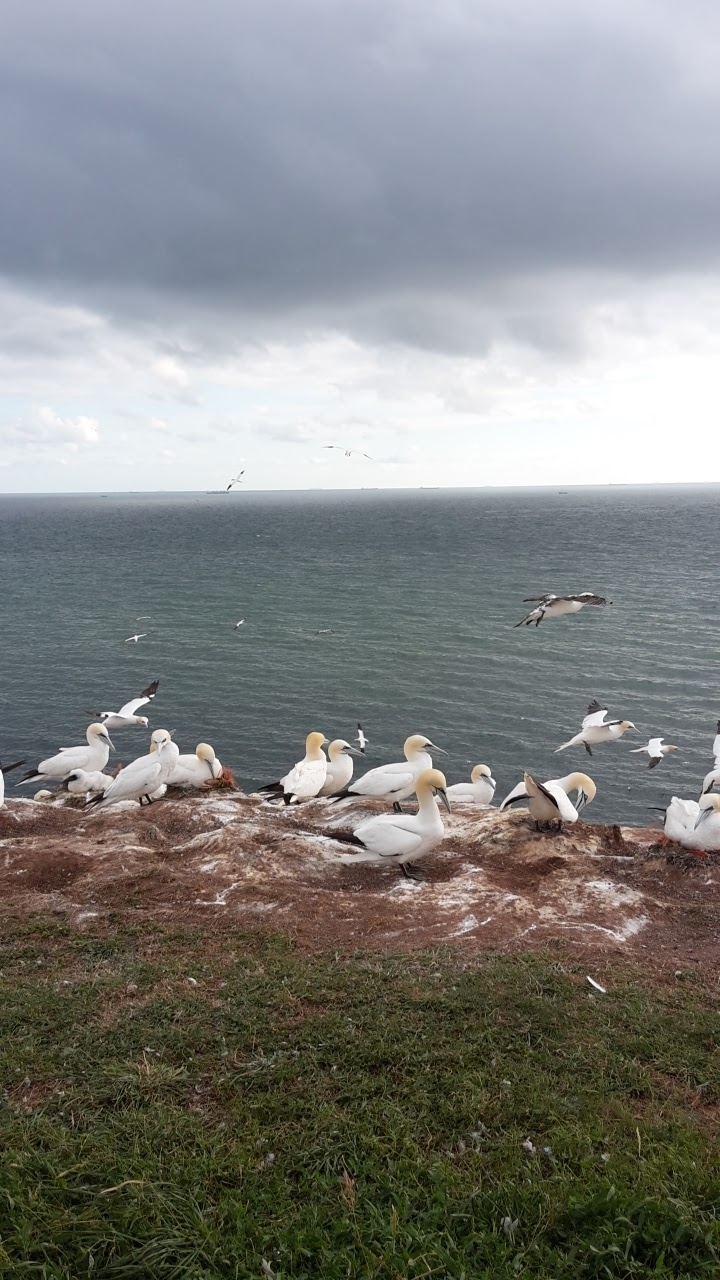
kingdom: Animalia
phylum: Chordata
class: Aves
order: Suliformes
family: Sulidae
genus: Morus
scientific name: Morus bassanus
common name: Northern gannet
